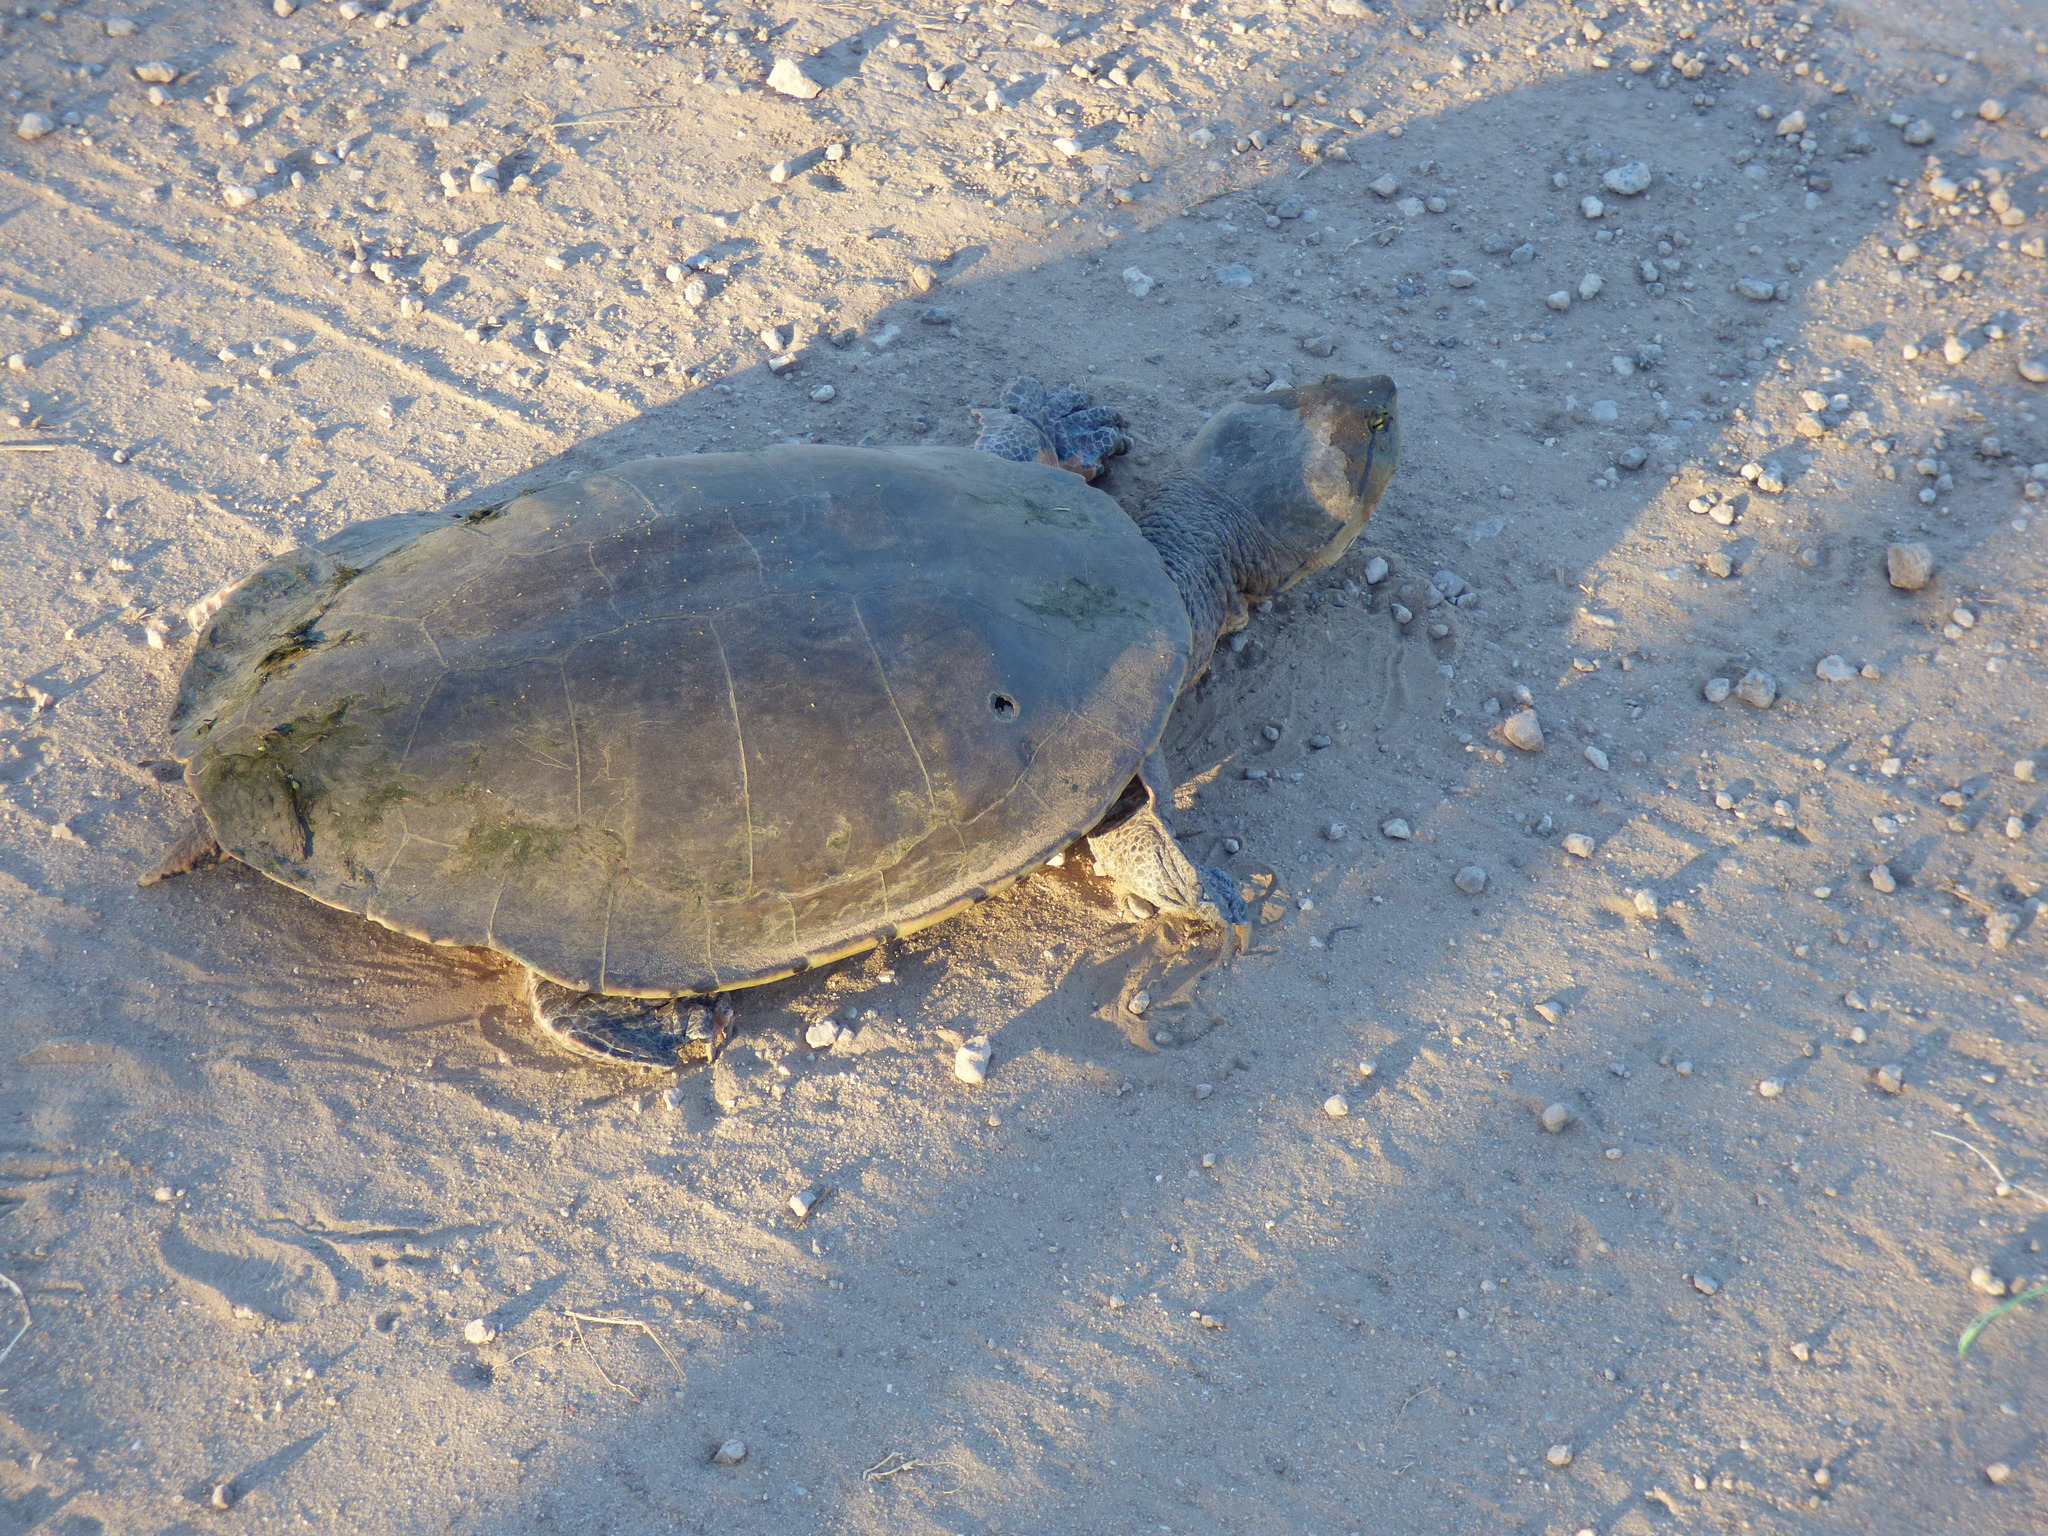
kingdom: Animalia
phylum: Chordata
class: Testudines
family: Chelidae
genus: Phrynops
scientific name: Phrynops hilarii
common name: Side-necked turtle of saint hillaire
